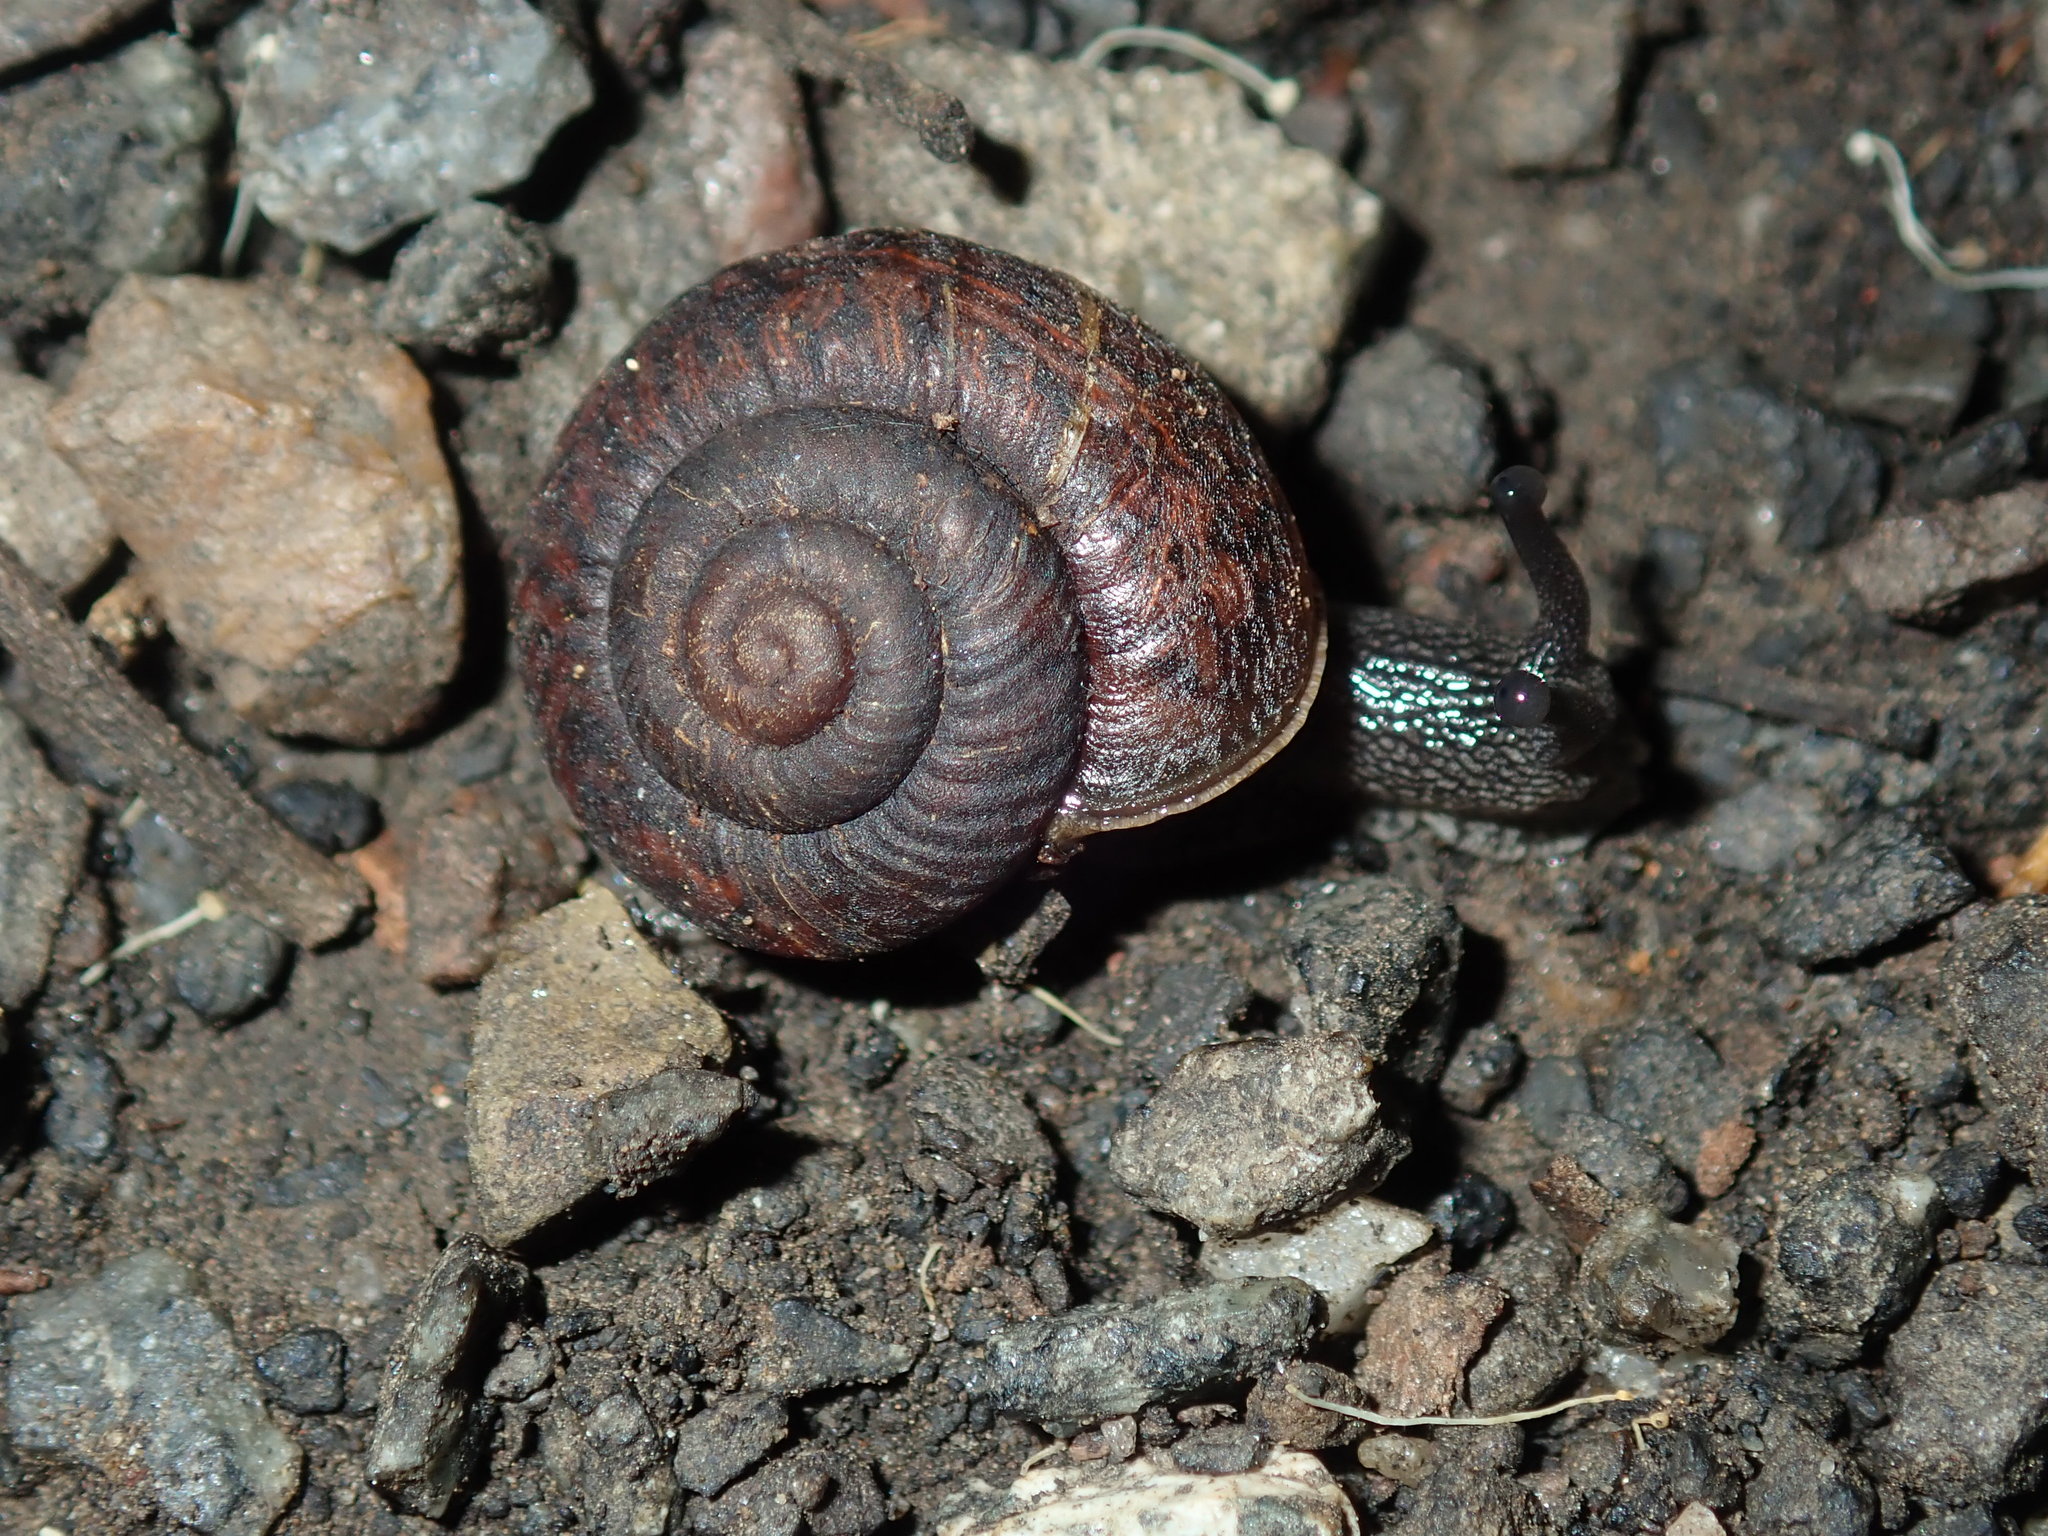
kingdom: Animalia
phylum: Mollusca
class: Gastropoda
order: Stylommatophora
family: Camaenidae
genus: Sauroconcha
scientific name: Sauroconcha sheai
